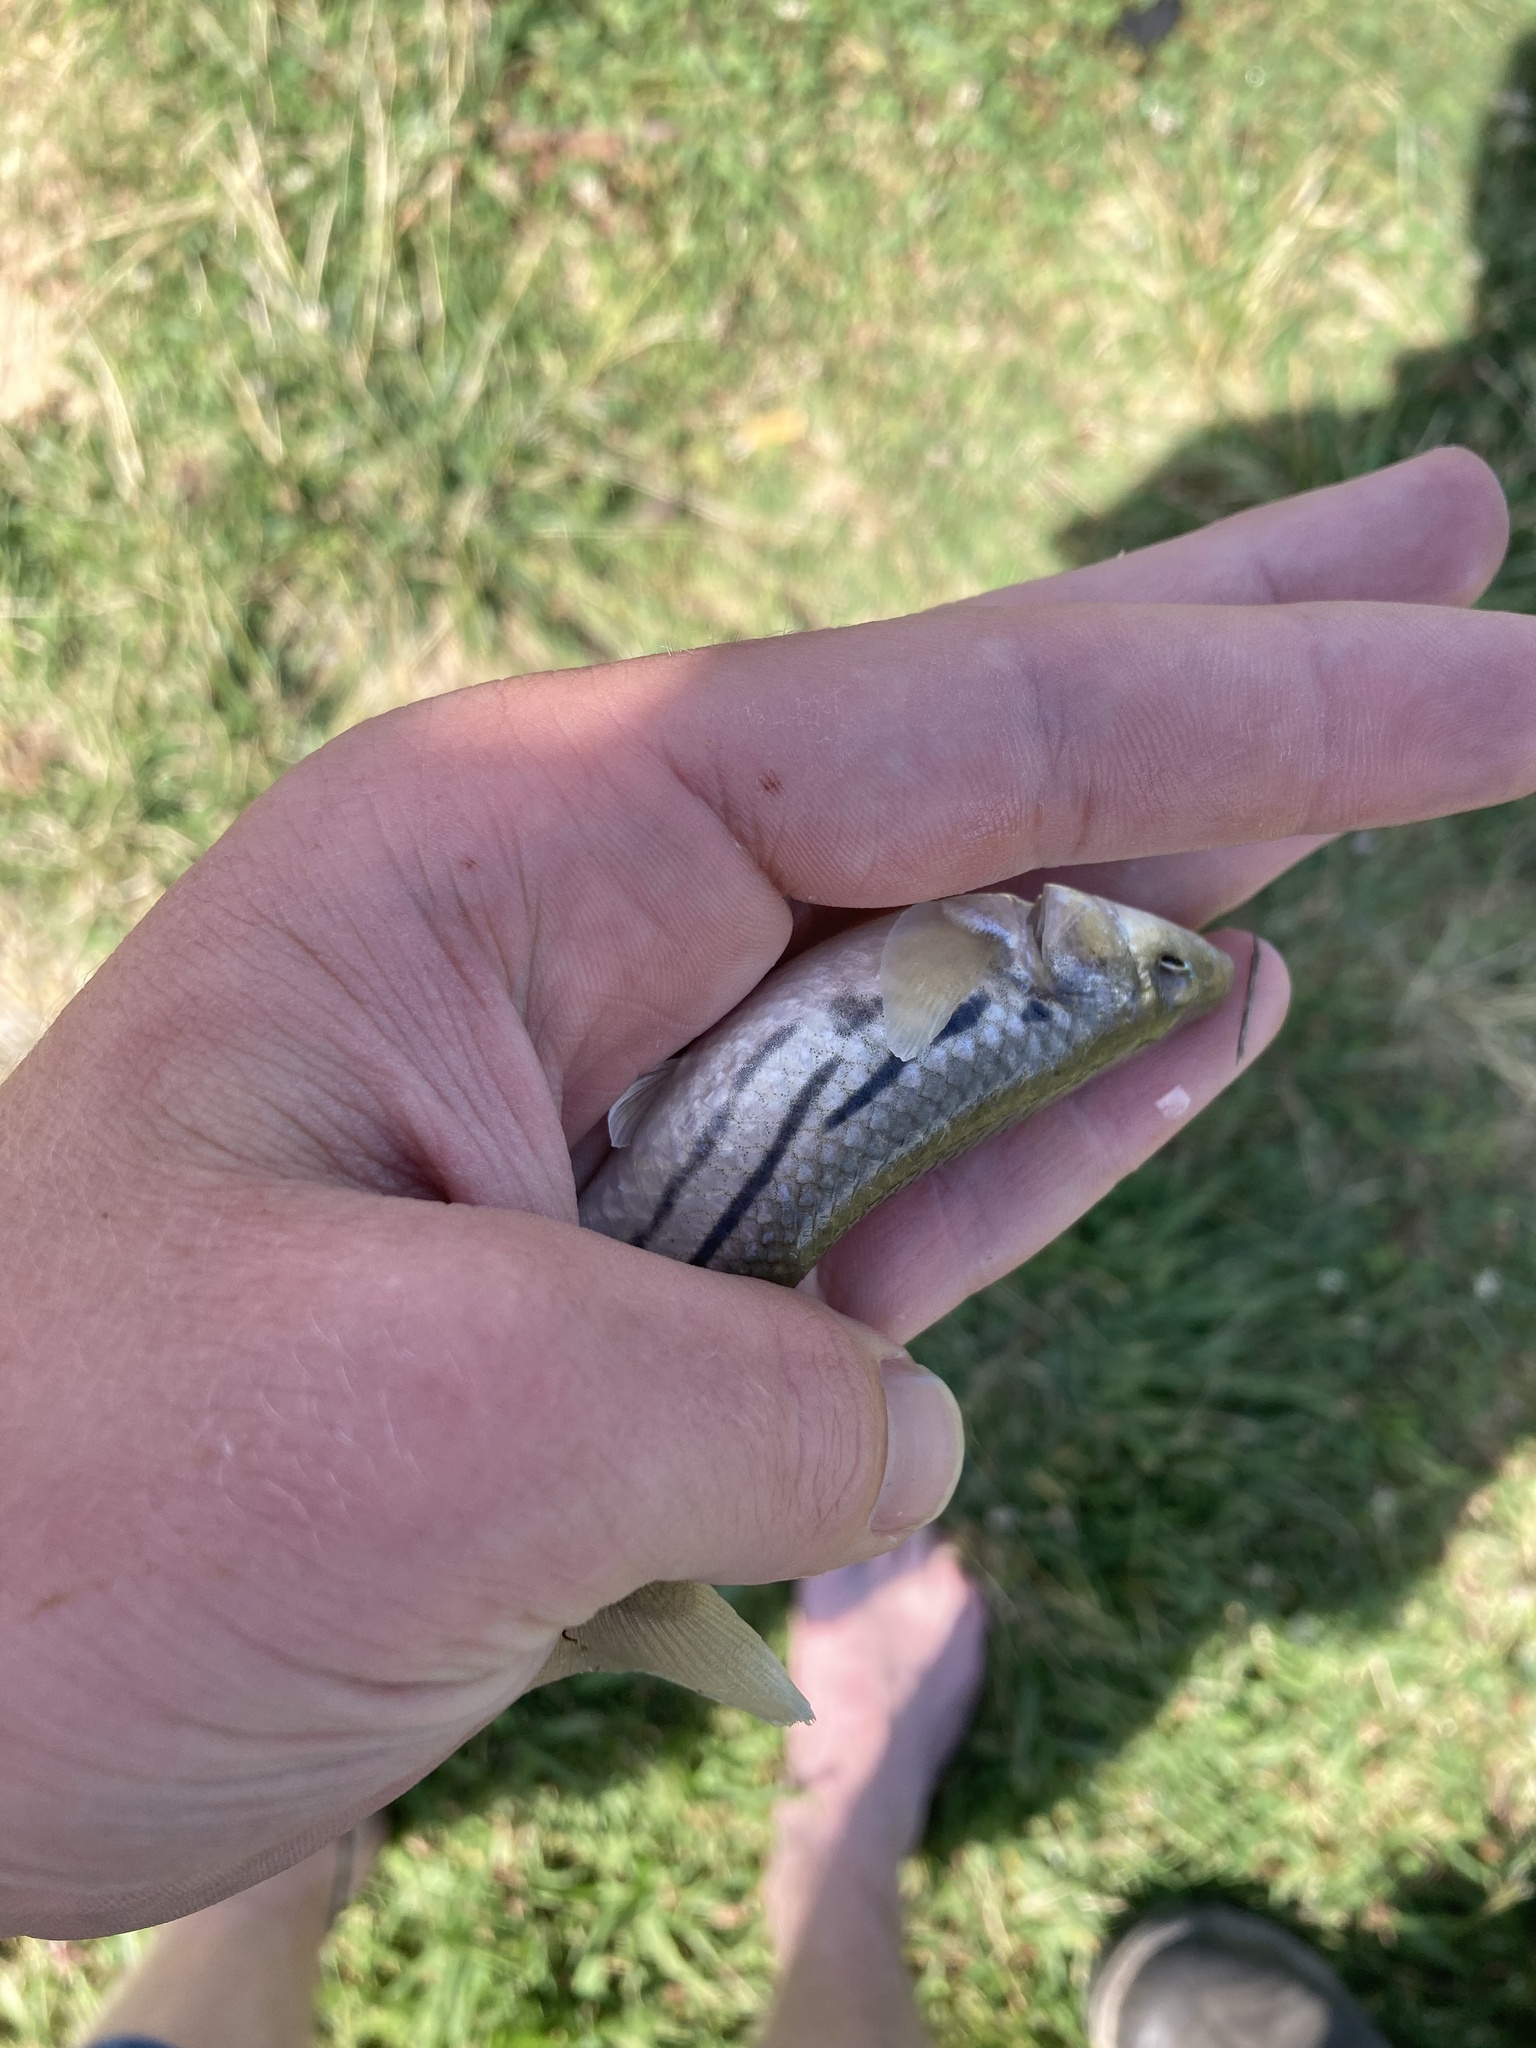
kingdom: Animalia
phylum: Chordata
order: Cyprinodontiformes
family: Fundulidae
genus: Fundulus
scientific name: Fundulus majalis
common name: Striped killifish
